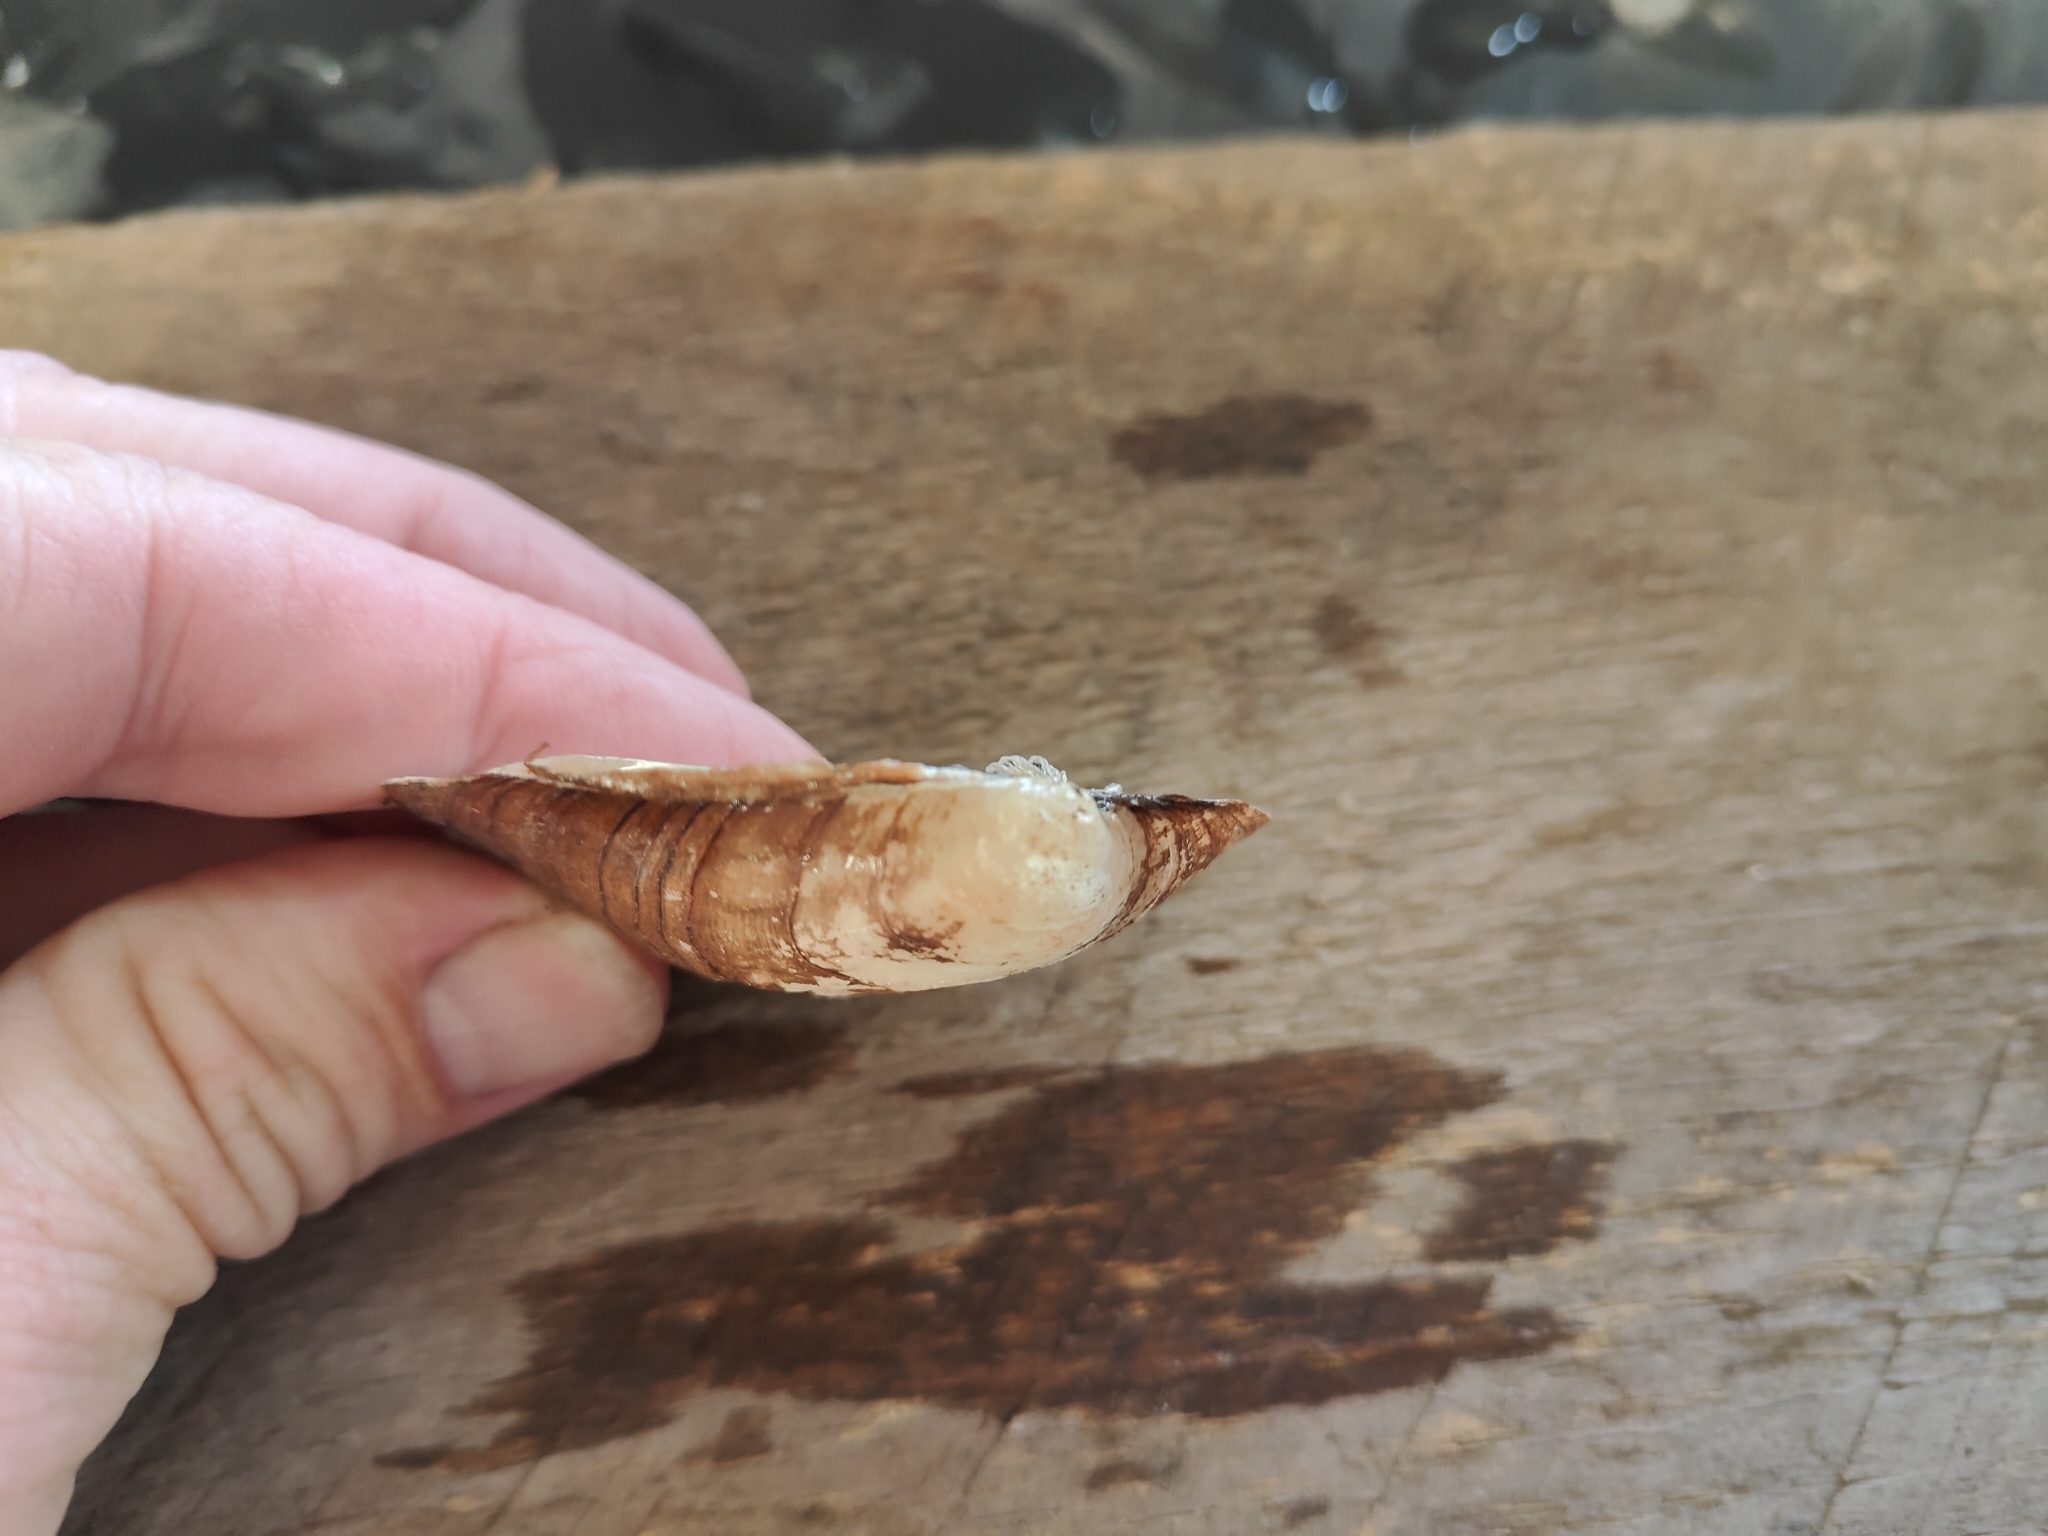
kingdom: Animalia
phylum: Mollusca
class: Bivalvia
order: Unionida
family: Unionidae
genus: Amblema
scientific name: Amblema plicata
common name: Threeridge
